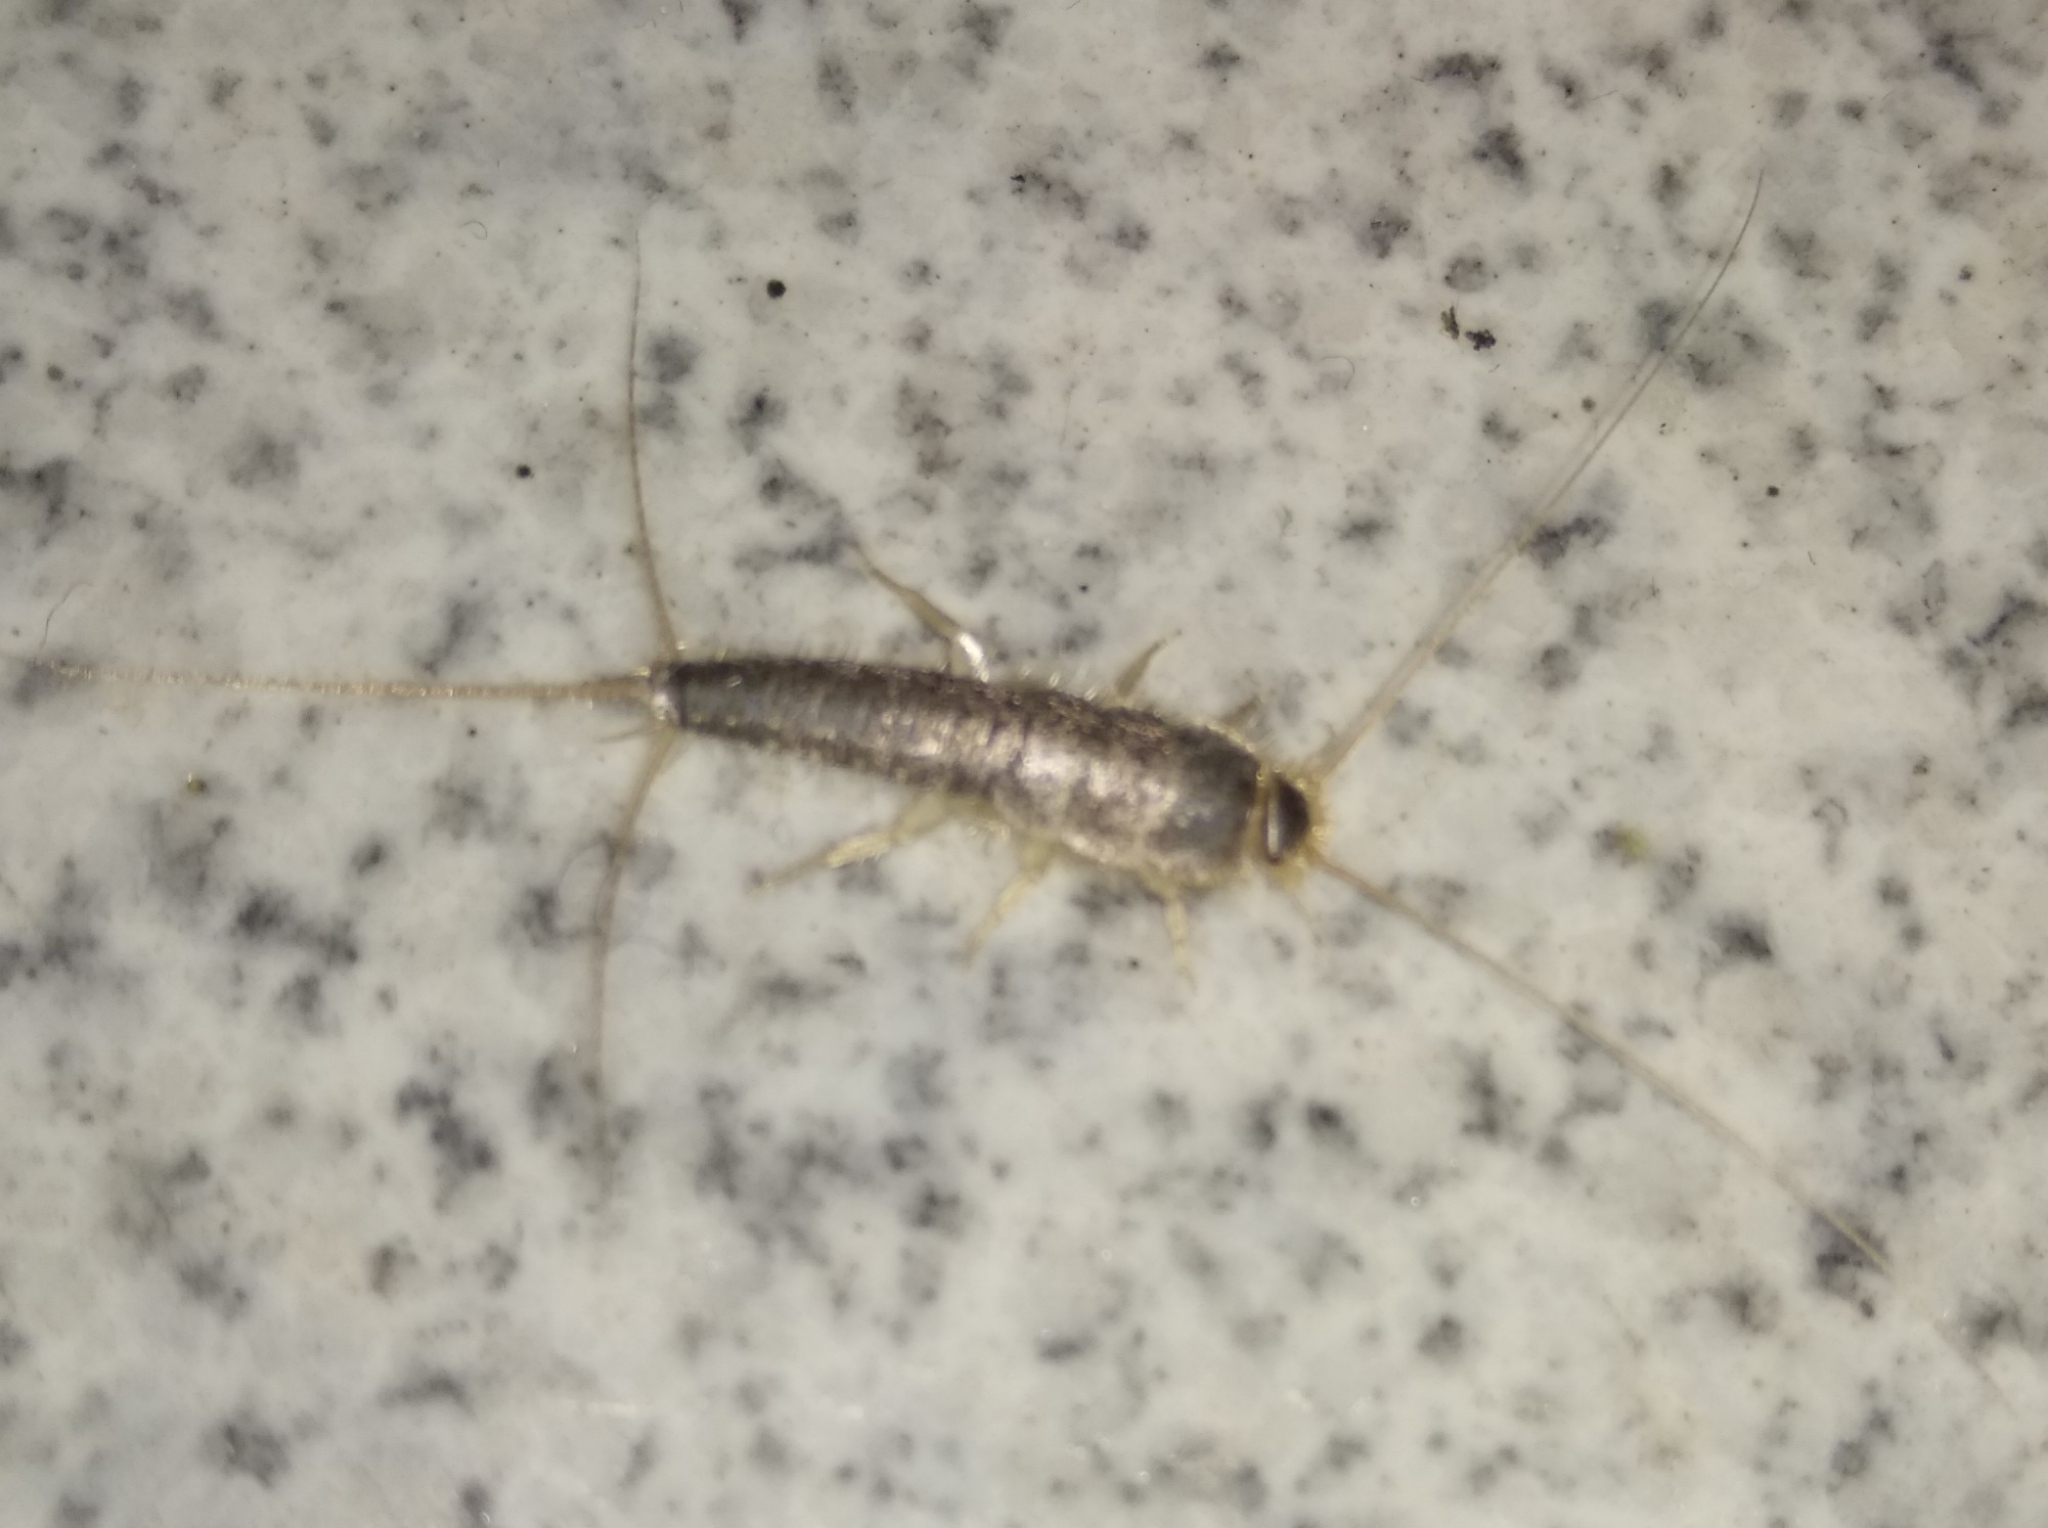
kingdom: Animalia
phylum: Arthropoda
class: Insecta
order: Zygentoma
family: Lepismatidae
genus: Ctenolepisma
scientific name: Ctenolepisma longicaudatum
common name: Silverfish
